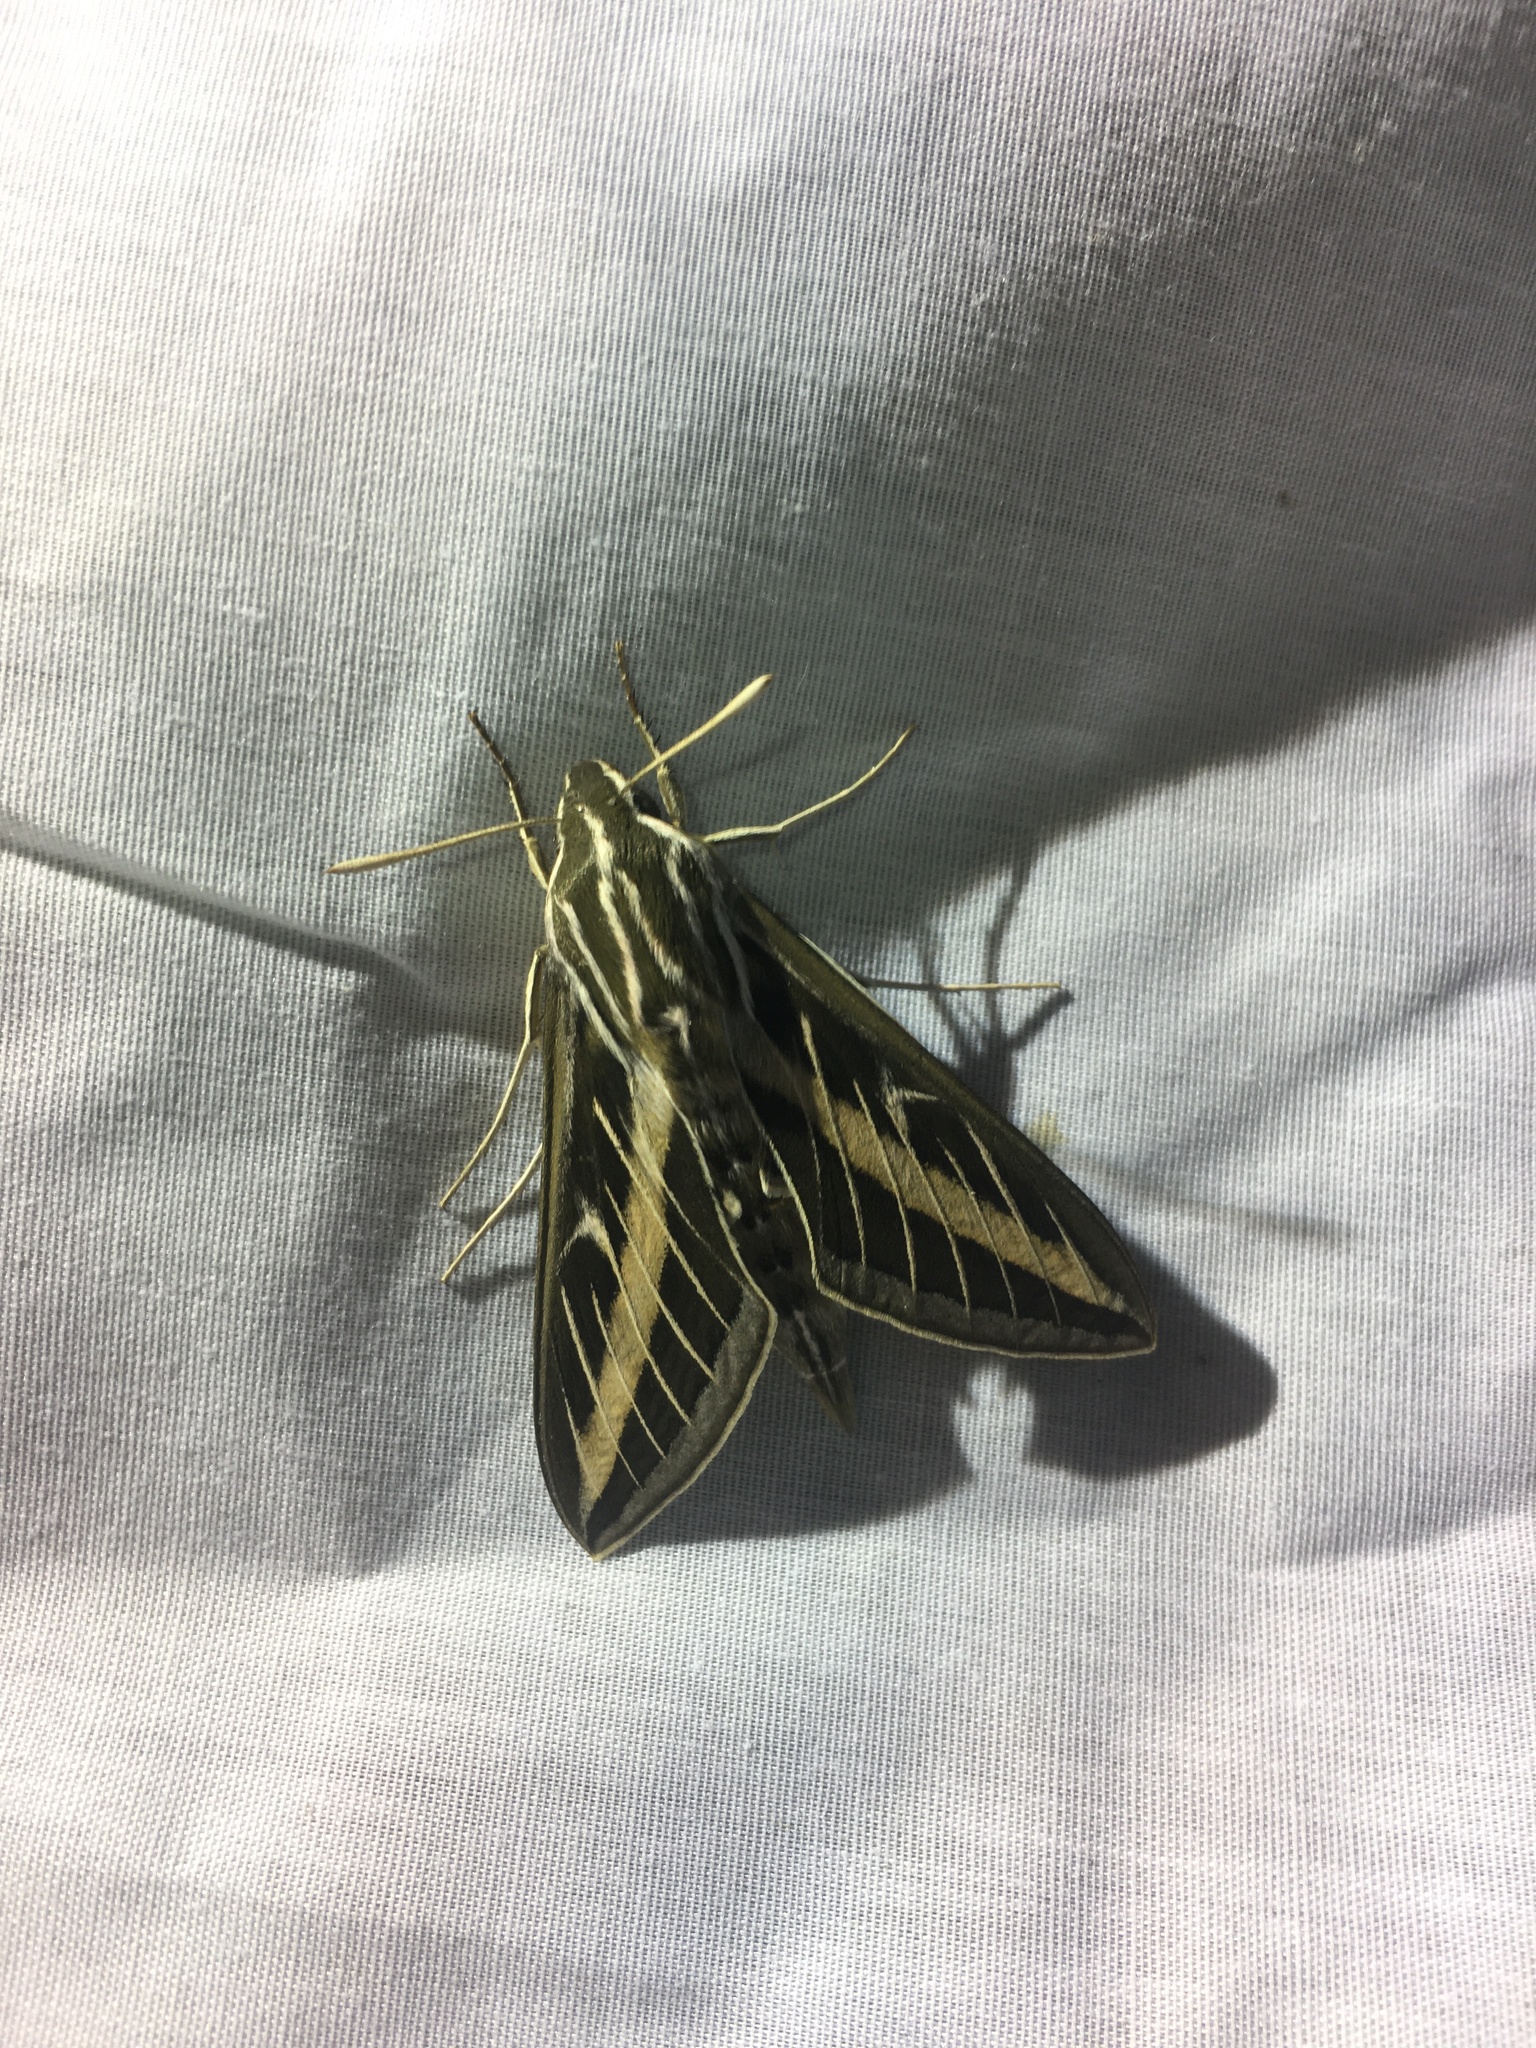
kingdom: Animalia
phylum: Arthropoda
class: Insecta
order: Lepidoptera
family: Sphingidae
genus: Hyles
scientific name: Hyles lineata
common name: White-lined sphinx
